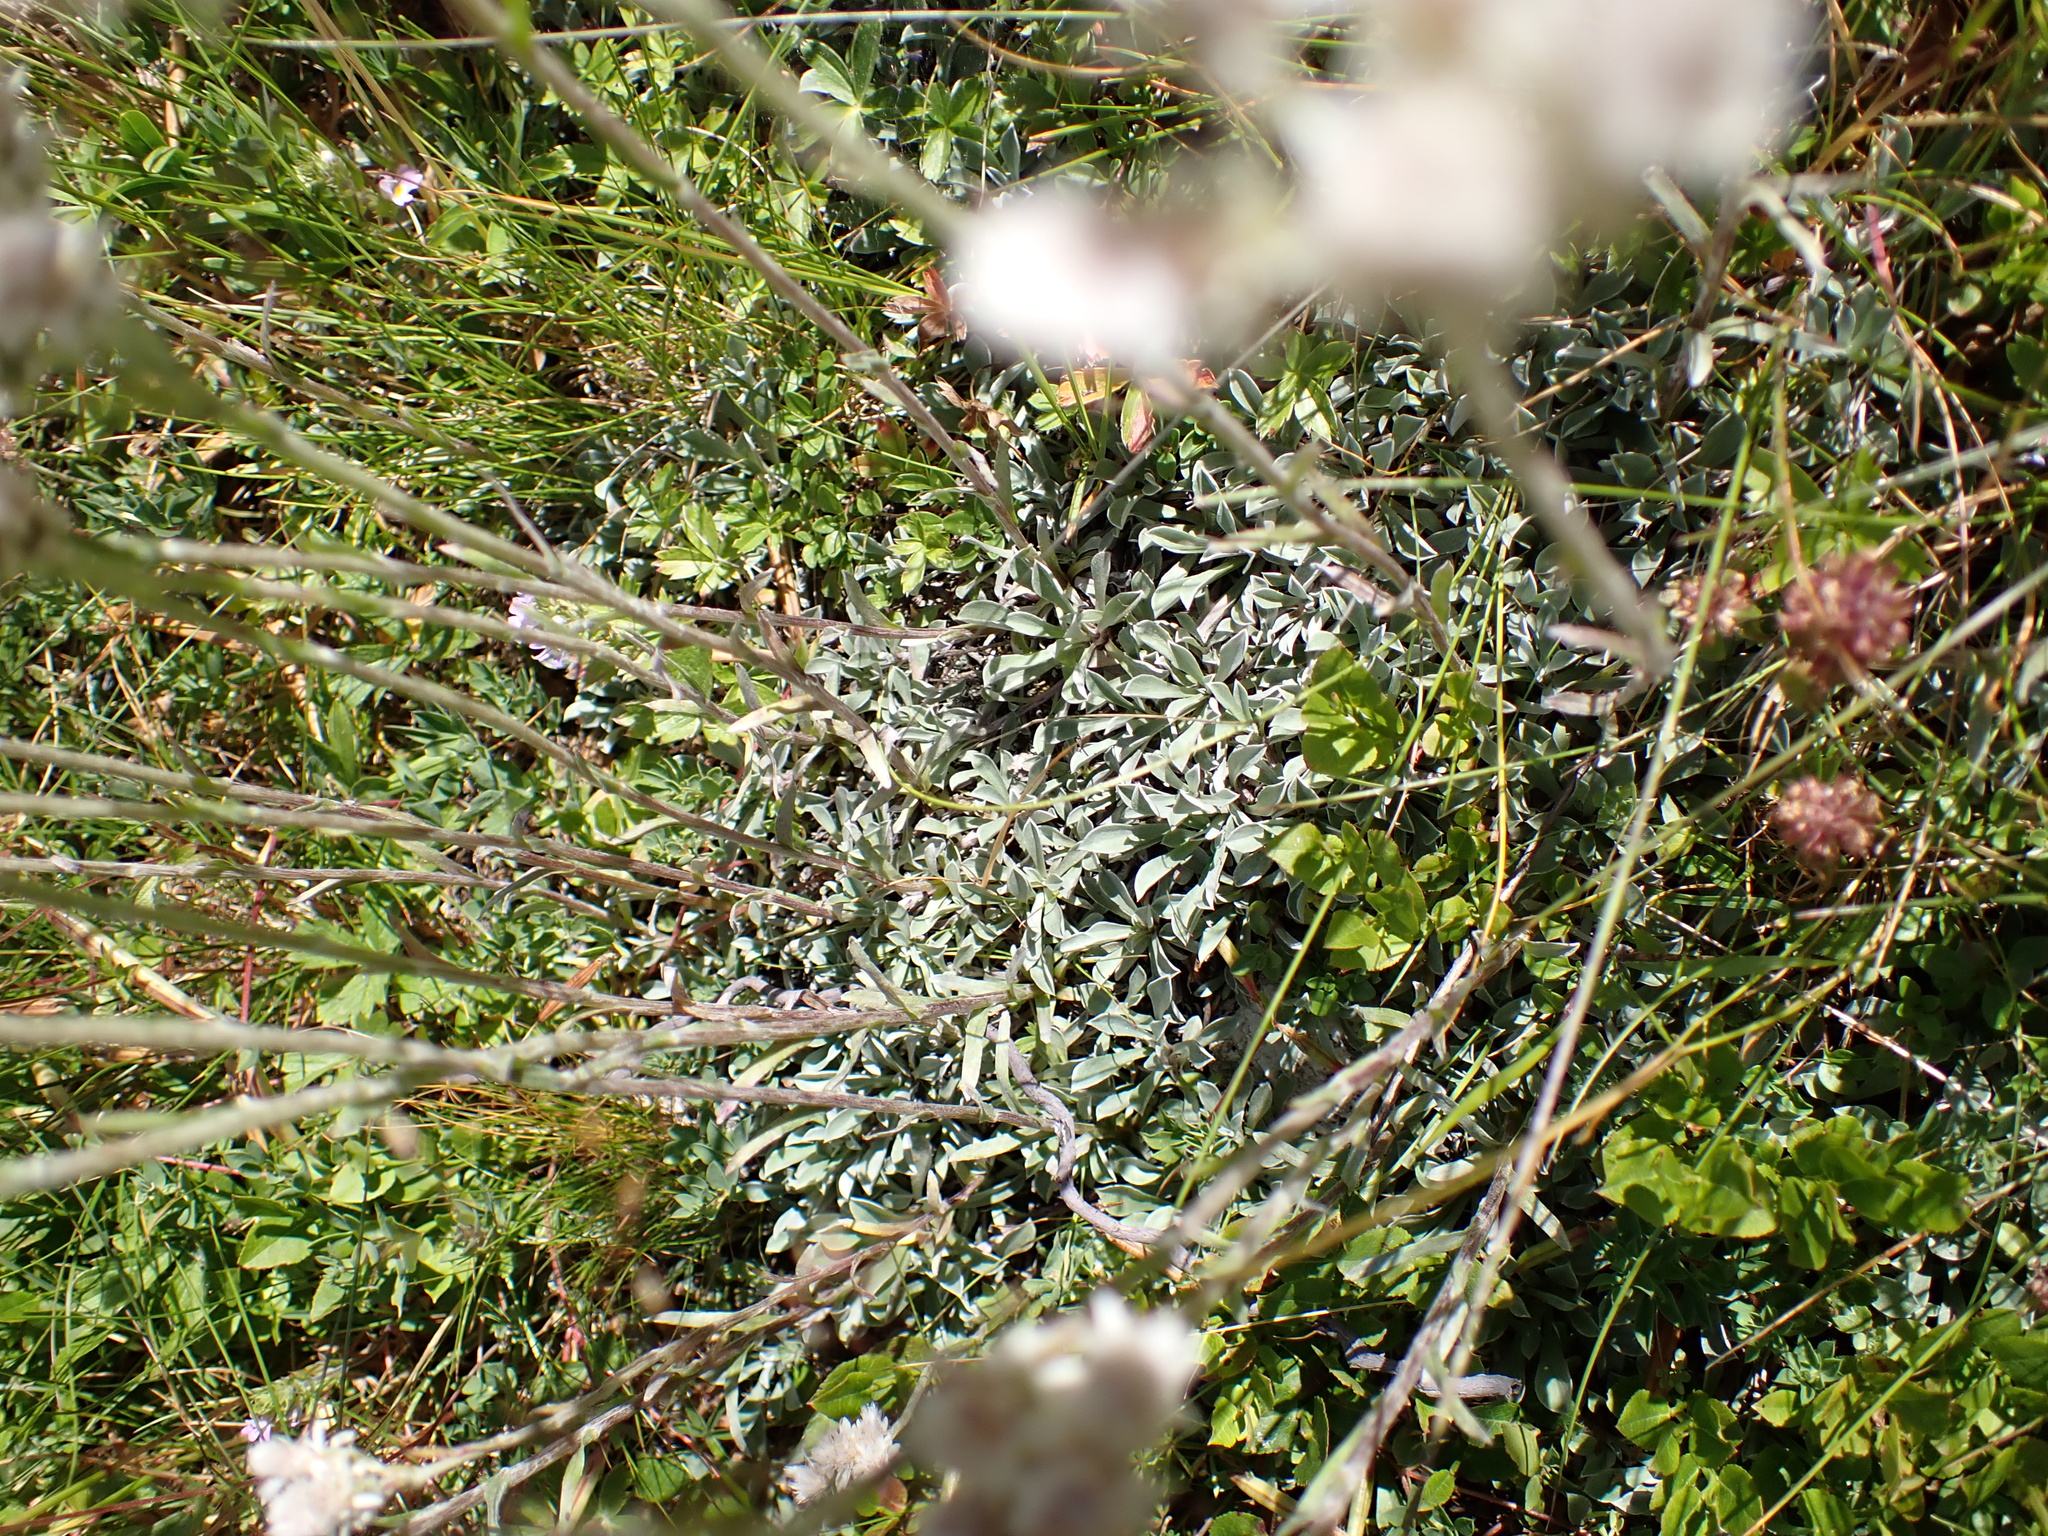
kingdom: Plantae
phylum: Tracheophyta
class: Magnoliopsida
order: Asterales
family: Asteraceae
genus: Antennaria
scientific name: Antennaria dioica
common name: Mountain everlasting
